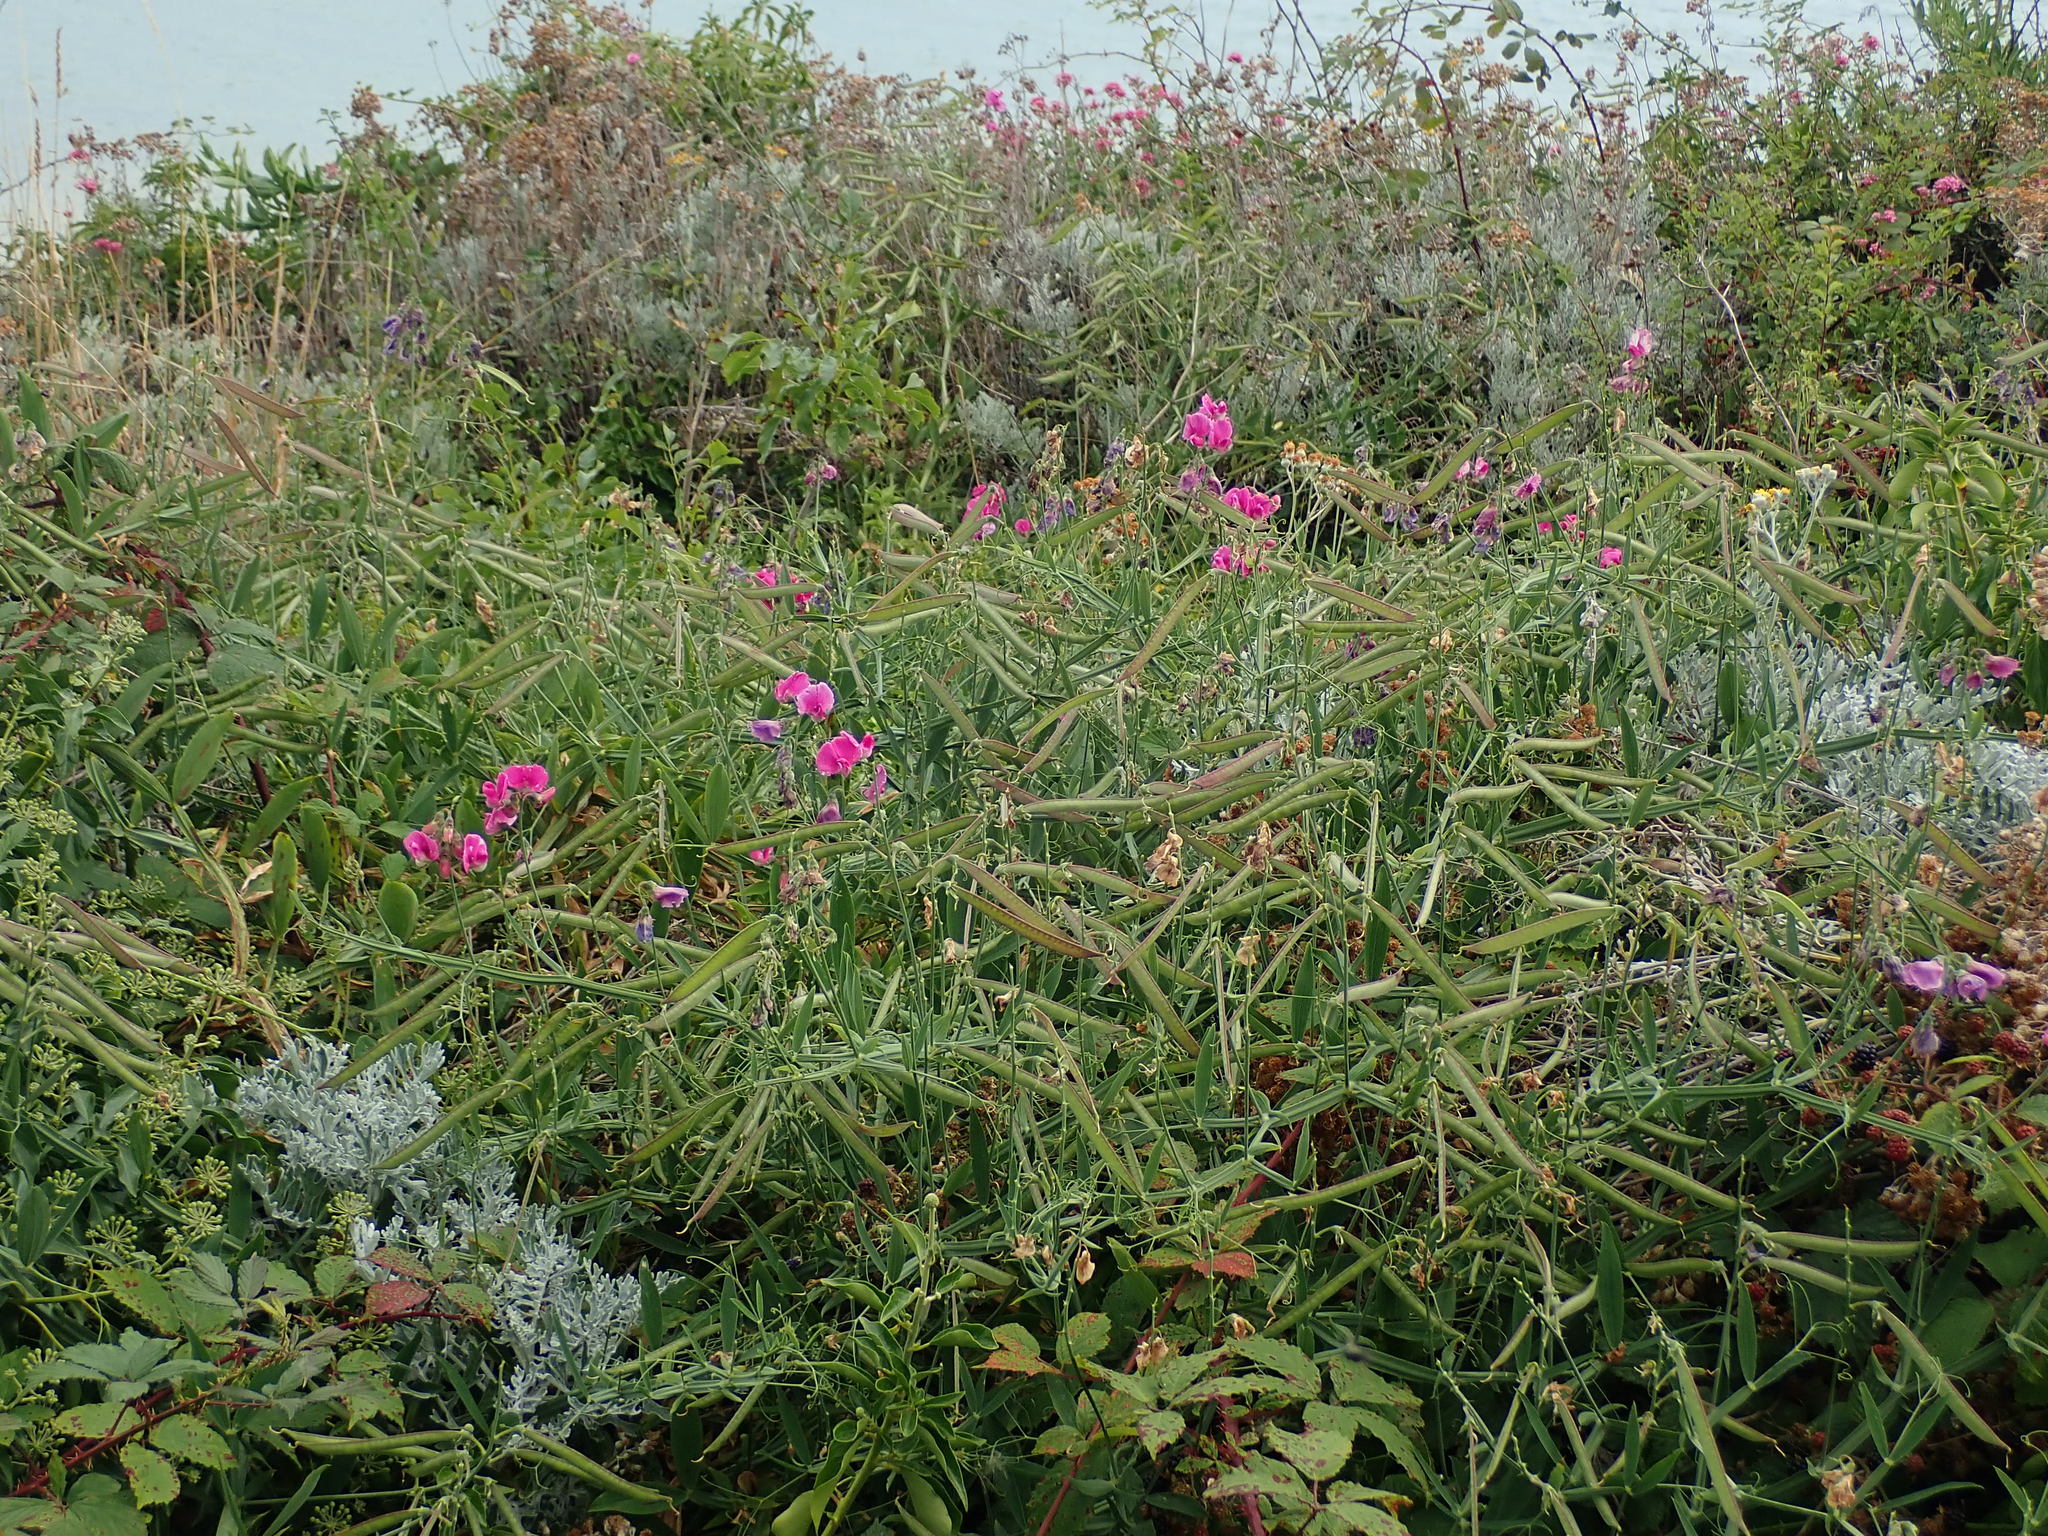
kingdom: Plantae
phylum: Tracheophyta
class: Magnoliopsida
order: Fabales
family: Fabaceae
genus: Lathyrus
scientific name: Lathyrus latifolius
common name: Perennial pea
